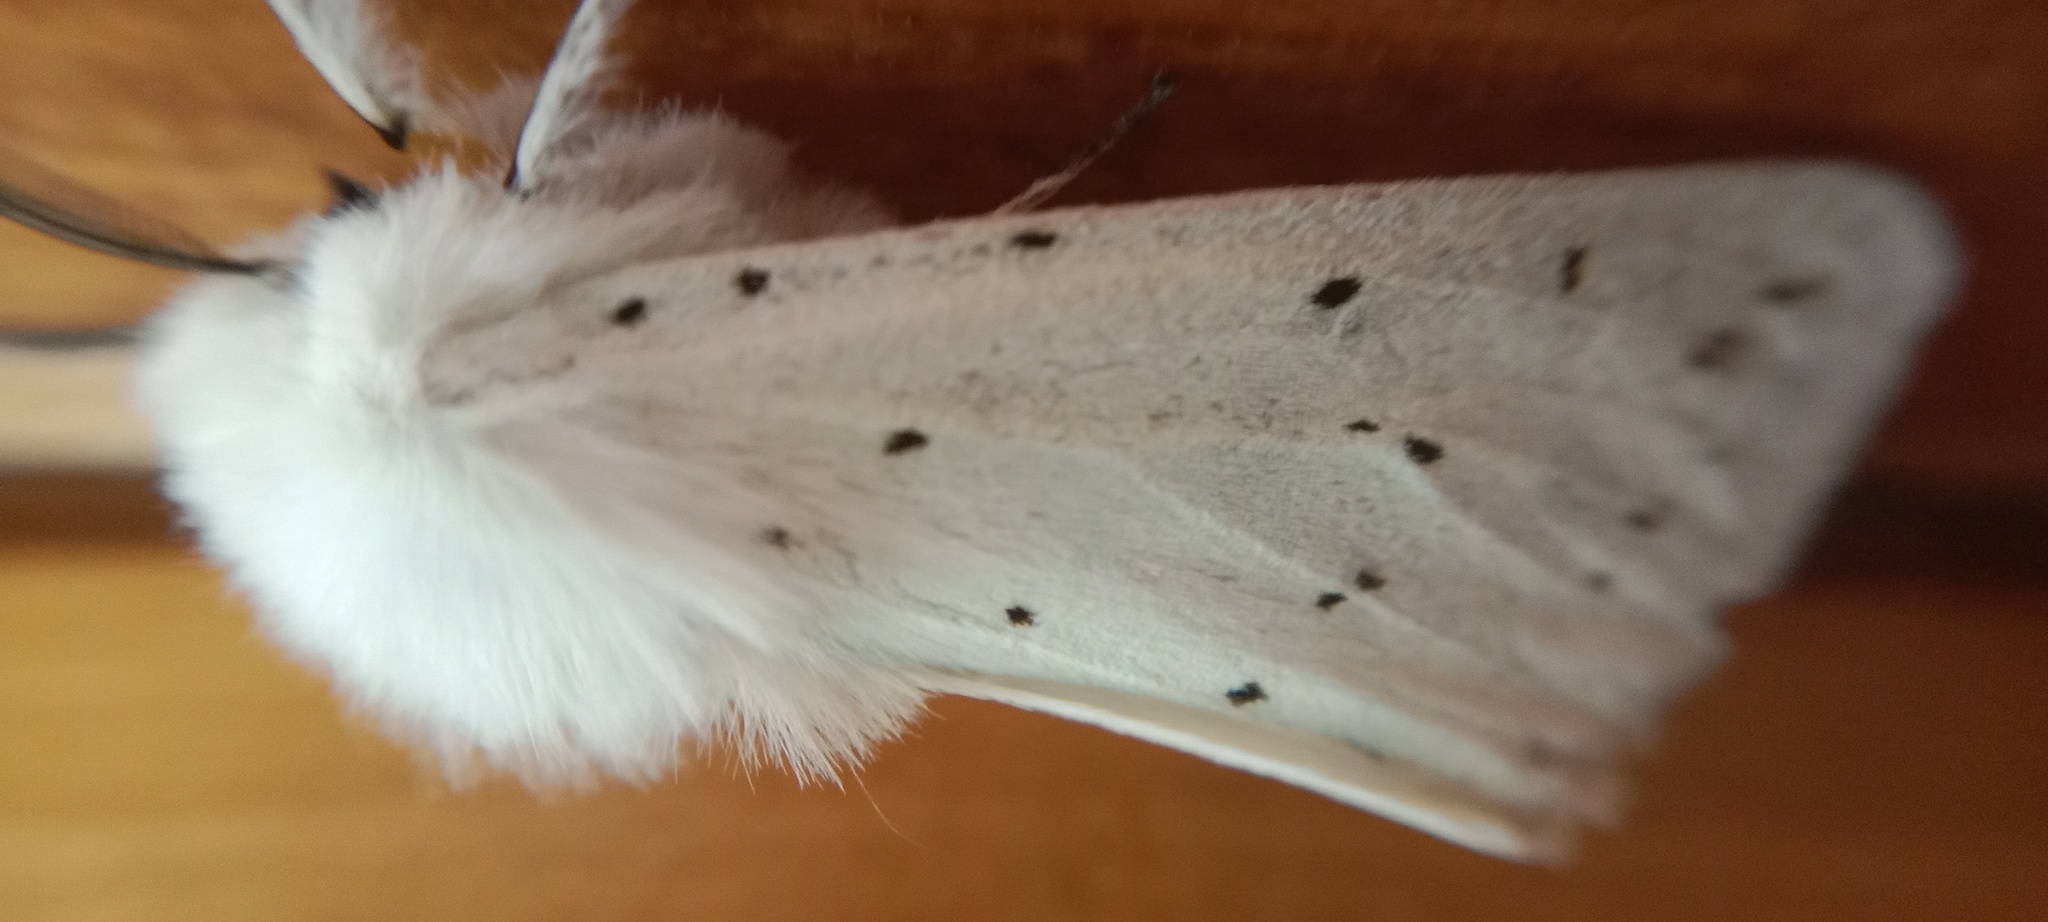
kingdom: Animalia
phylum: Arthropoda
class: Insecta
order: Lepidoptera
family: Erebidae
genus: Spilosoma
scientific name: Spilosoma lubricipeda
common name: White ermine
